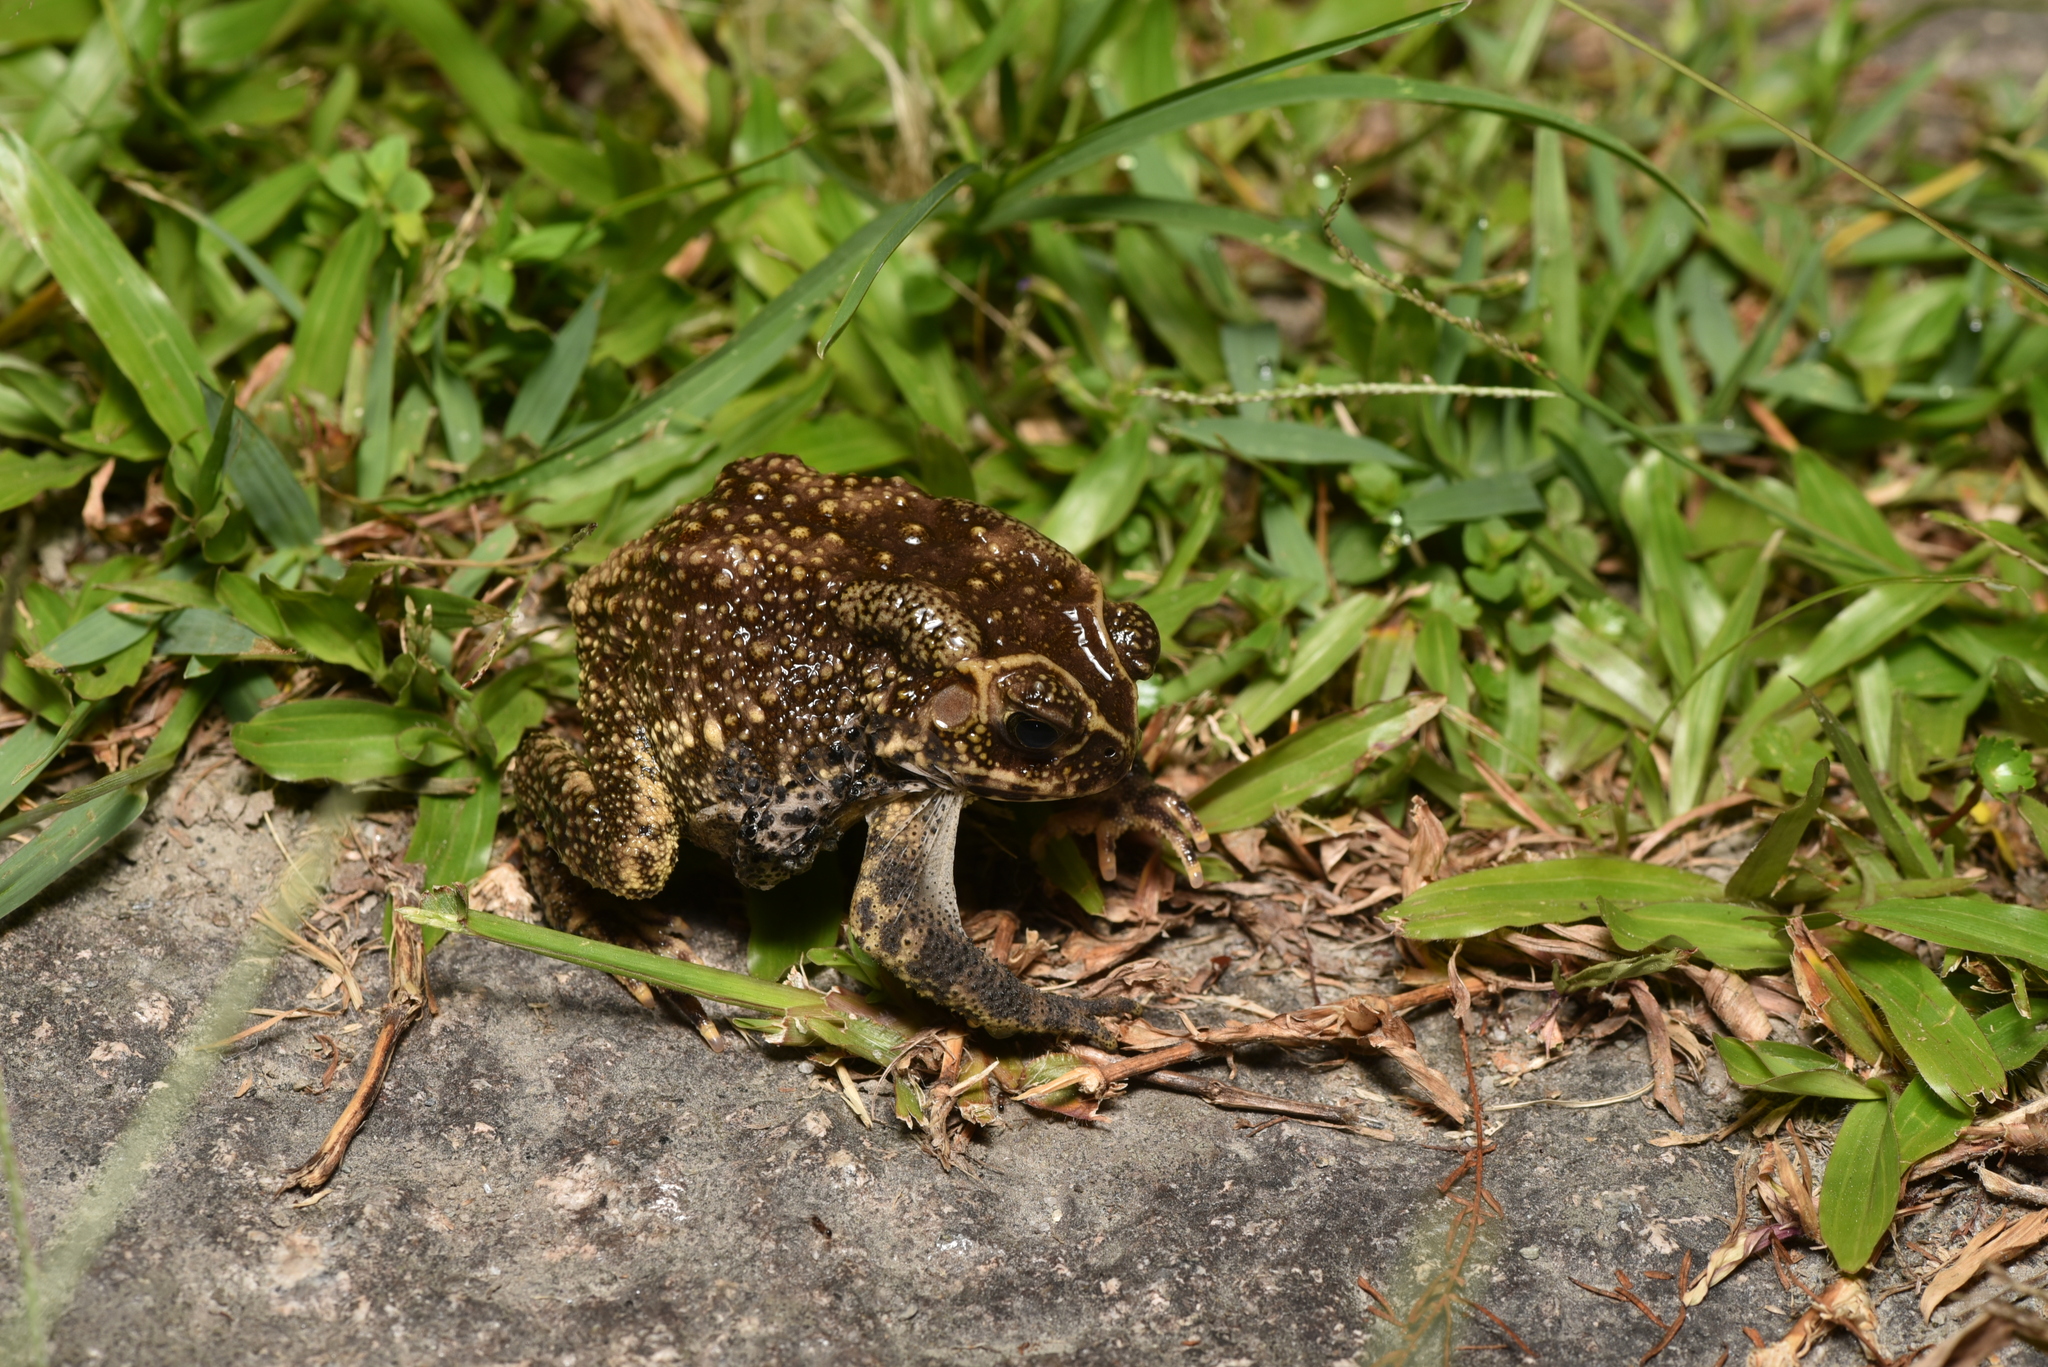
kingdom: Animalia
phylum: Chordata
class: Amphibia
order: Anura
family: Bufonidae
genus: Duttaphrynus
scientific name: Duttaphrynus melanostictus
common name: Common sunda toad
